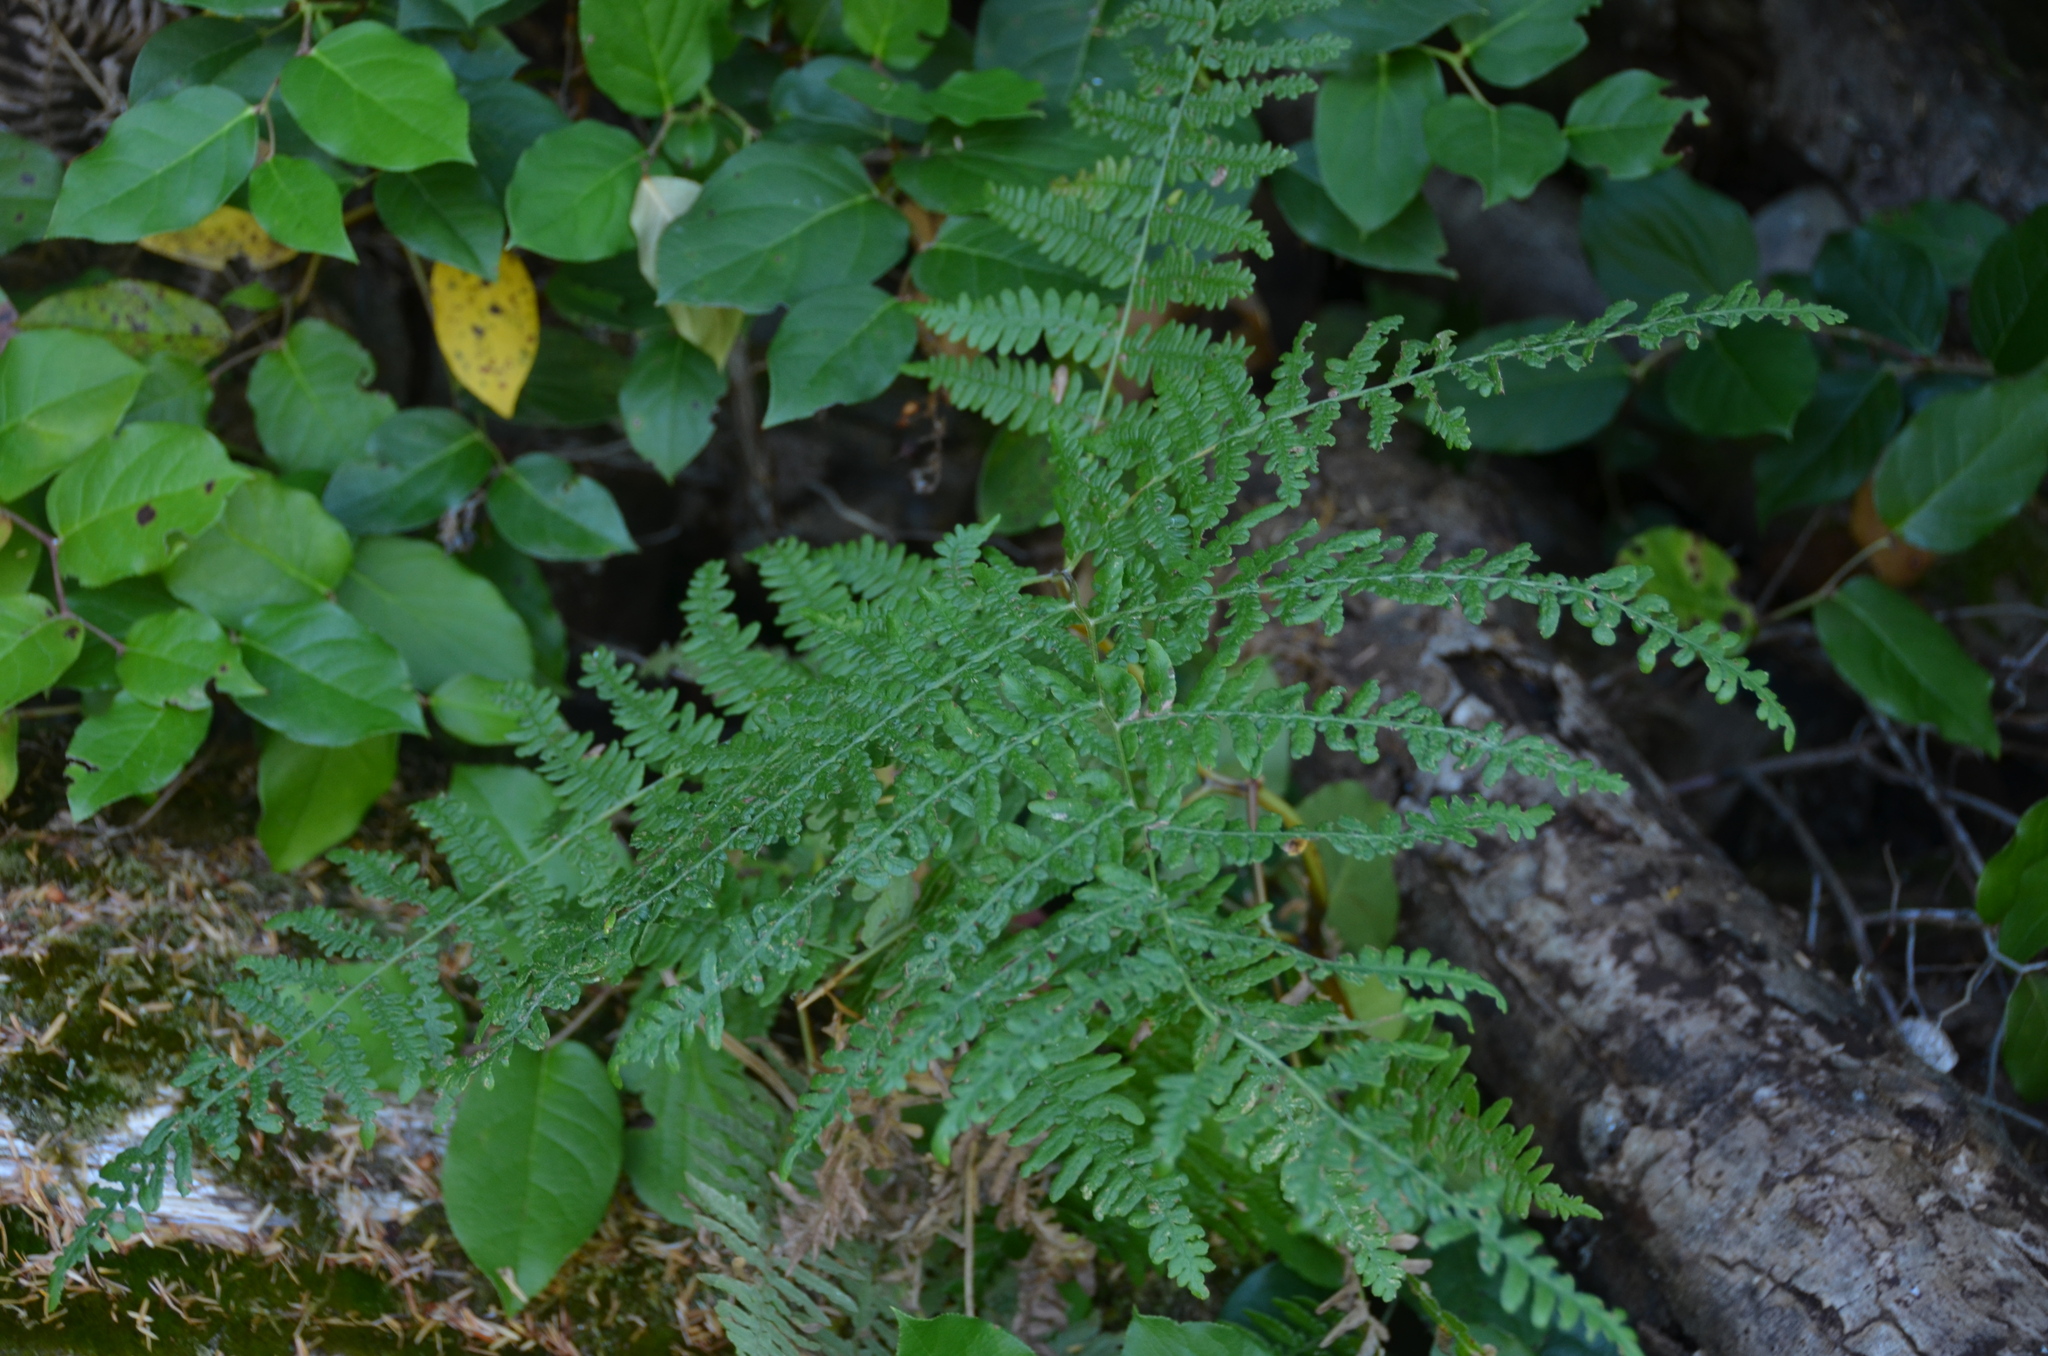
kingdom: Plantae
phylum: Tracheophyta
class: Polypodiopsida
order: Polypodiales
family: Dennstaedtiaceae
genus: Pteridium
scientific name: Pteridium aquilinum
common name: Bracken
